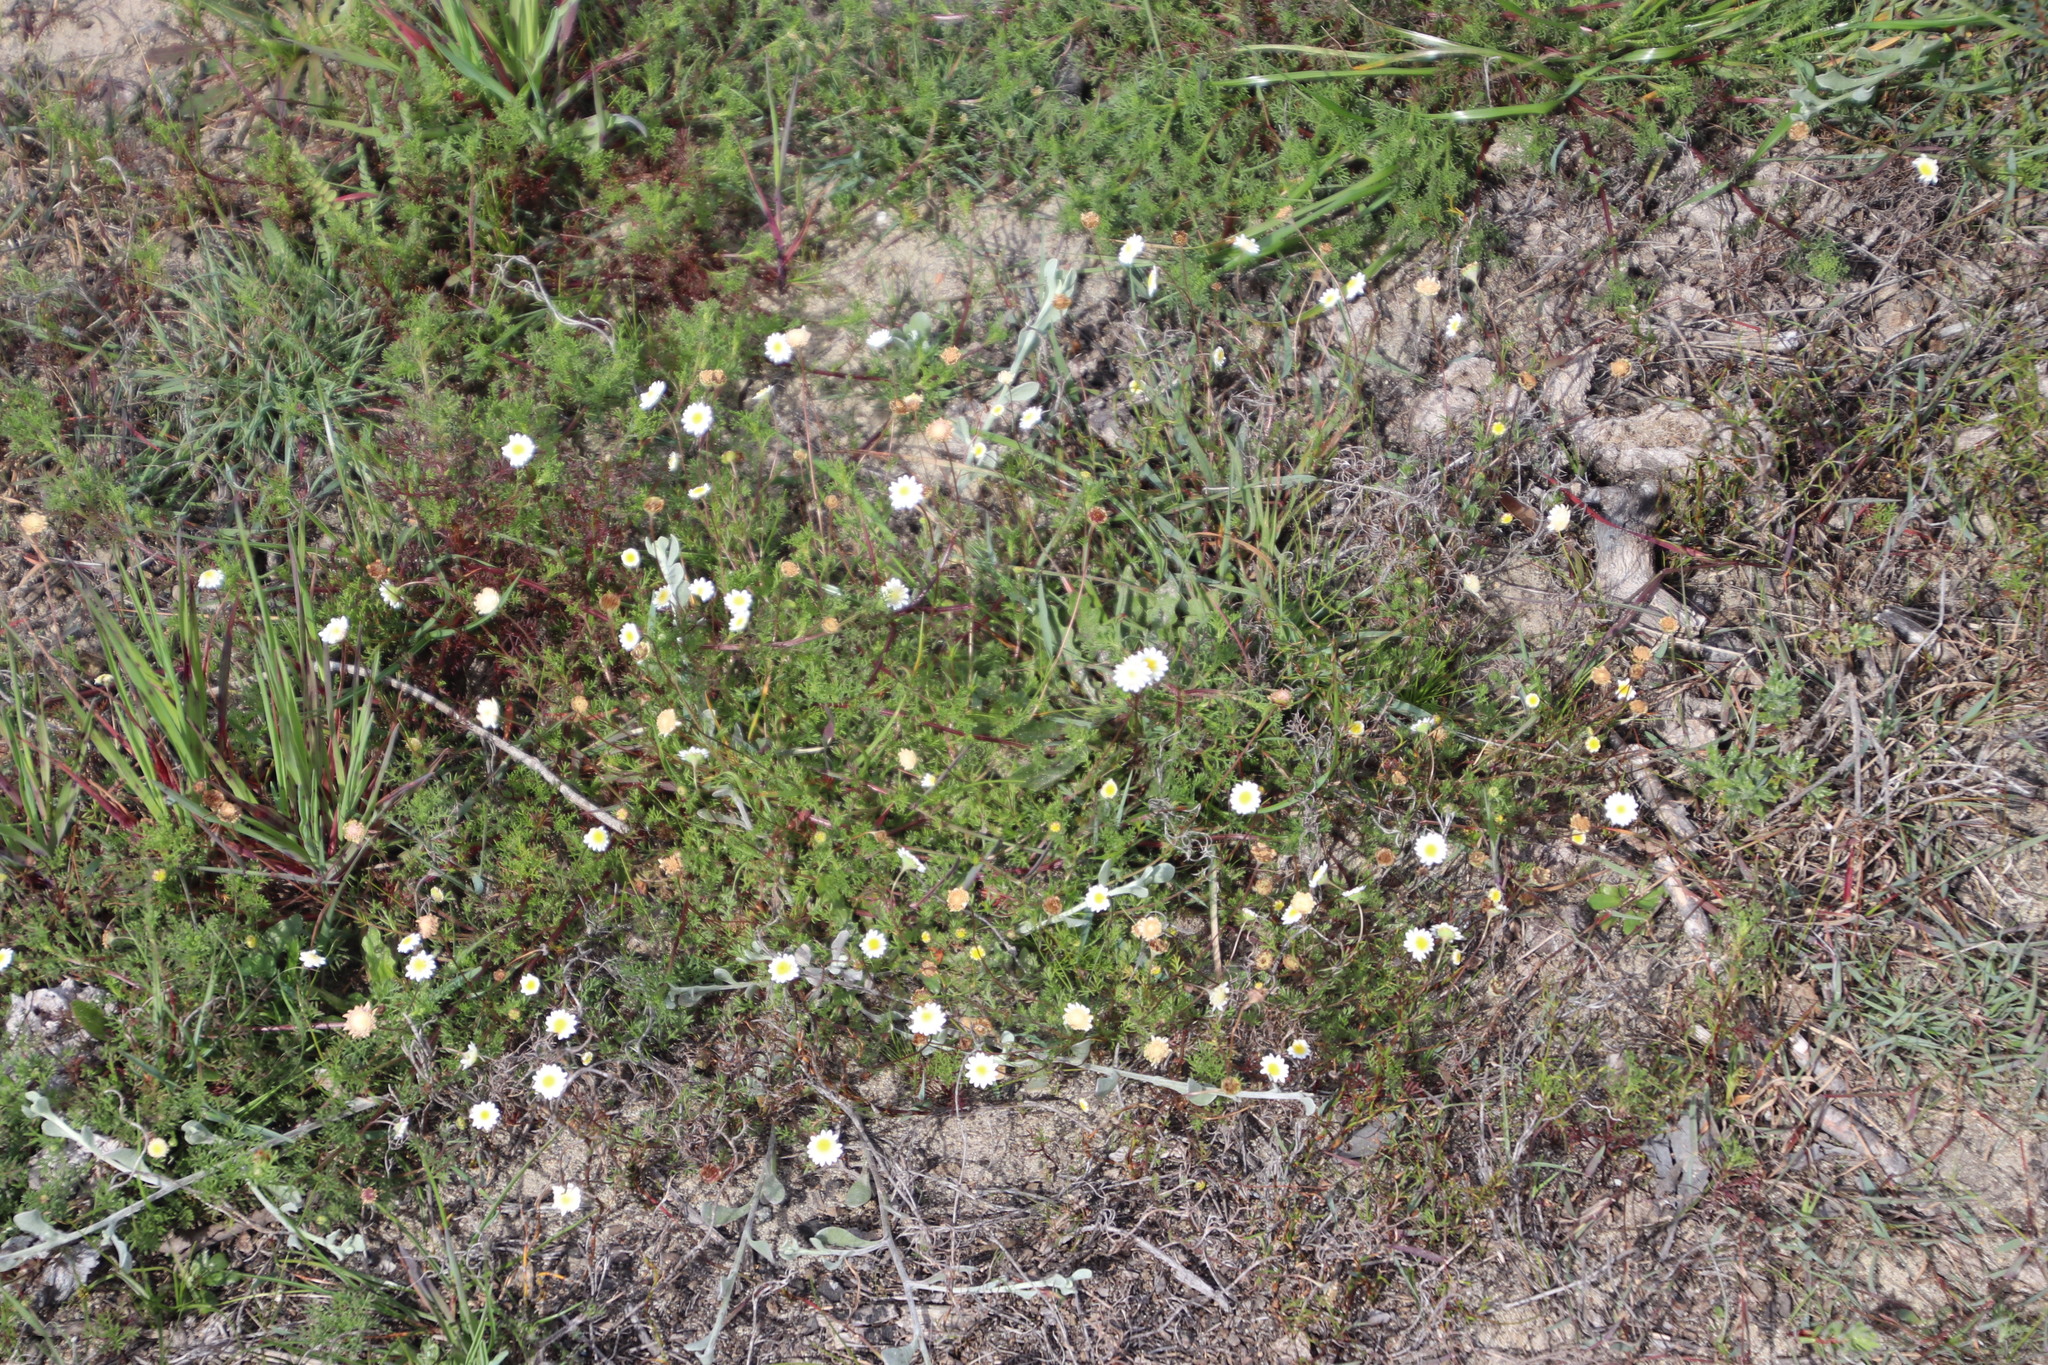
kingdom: Plantae
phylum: Tracheophyta
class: Magnoliopsida
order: Asterales
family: Asteraceae
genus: Cotula
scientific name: Cotula turbinata
